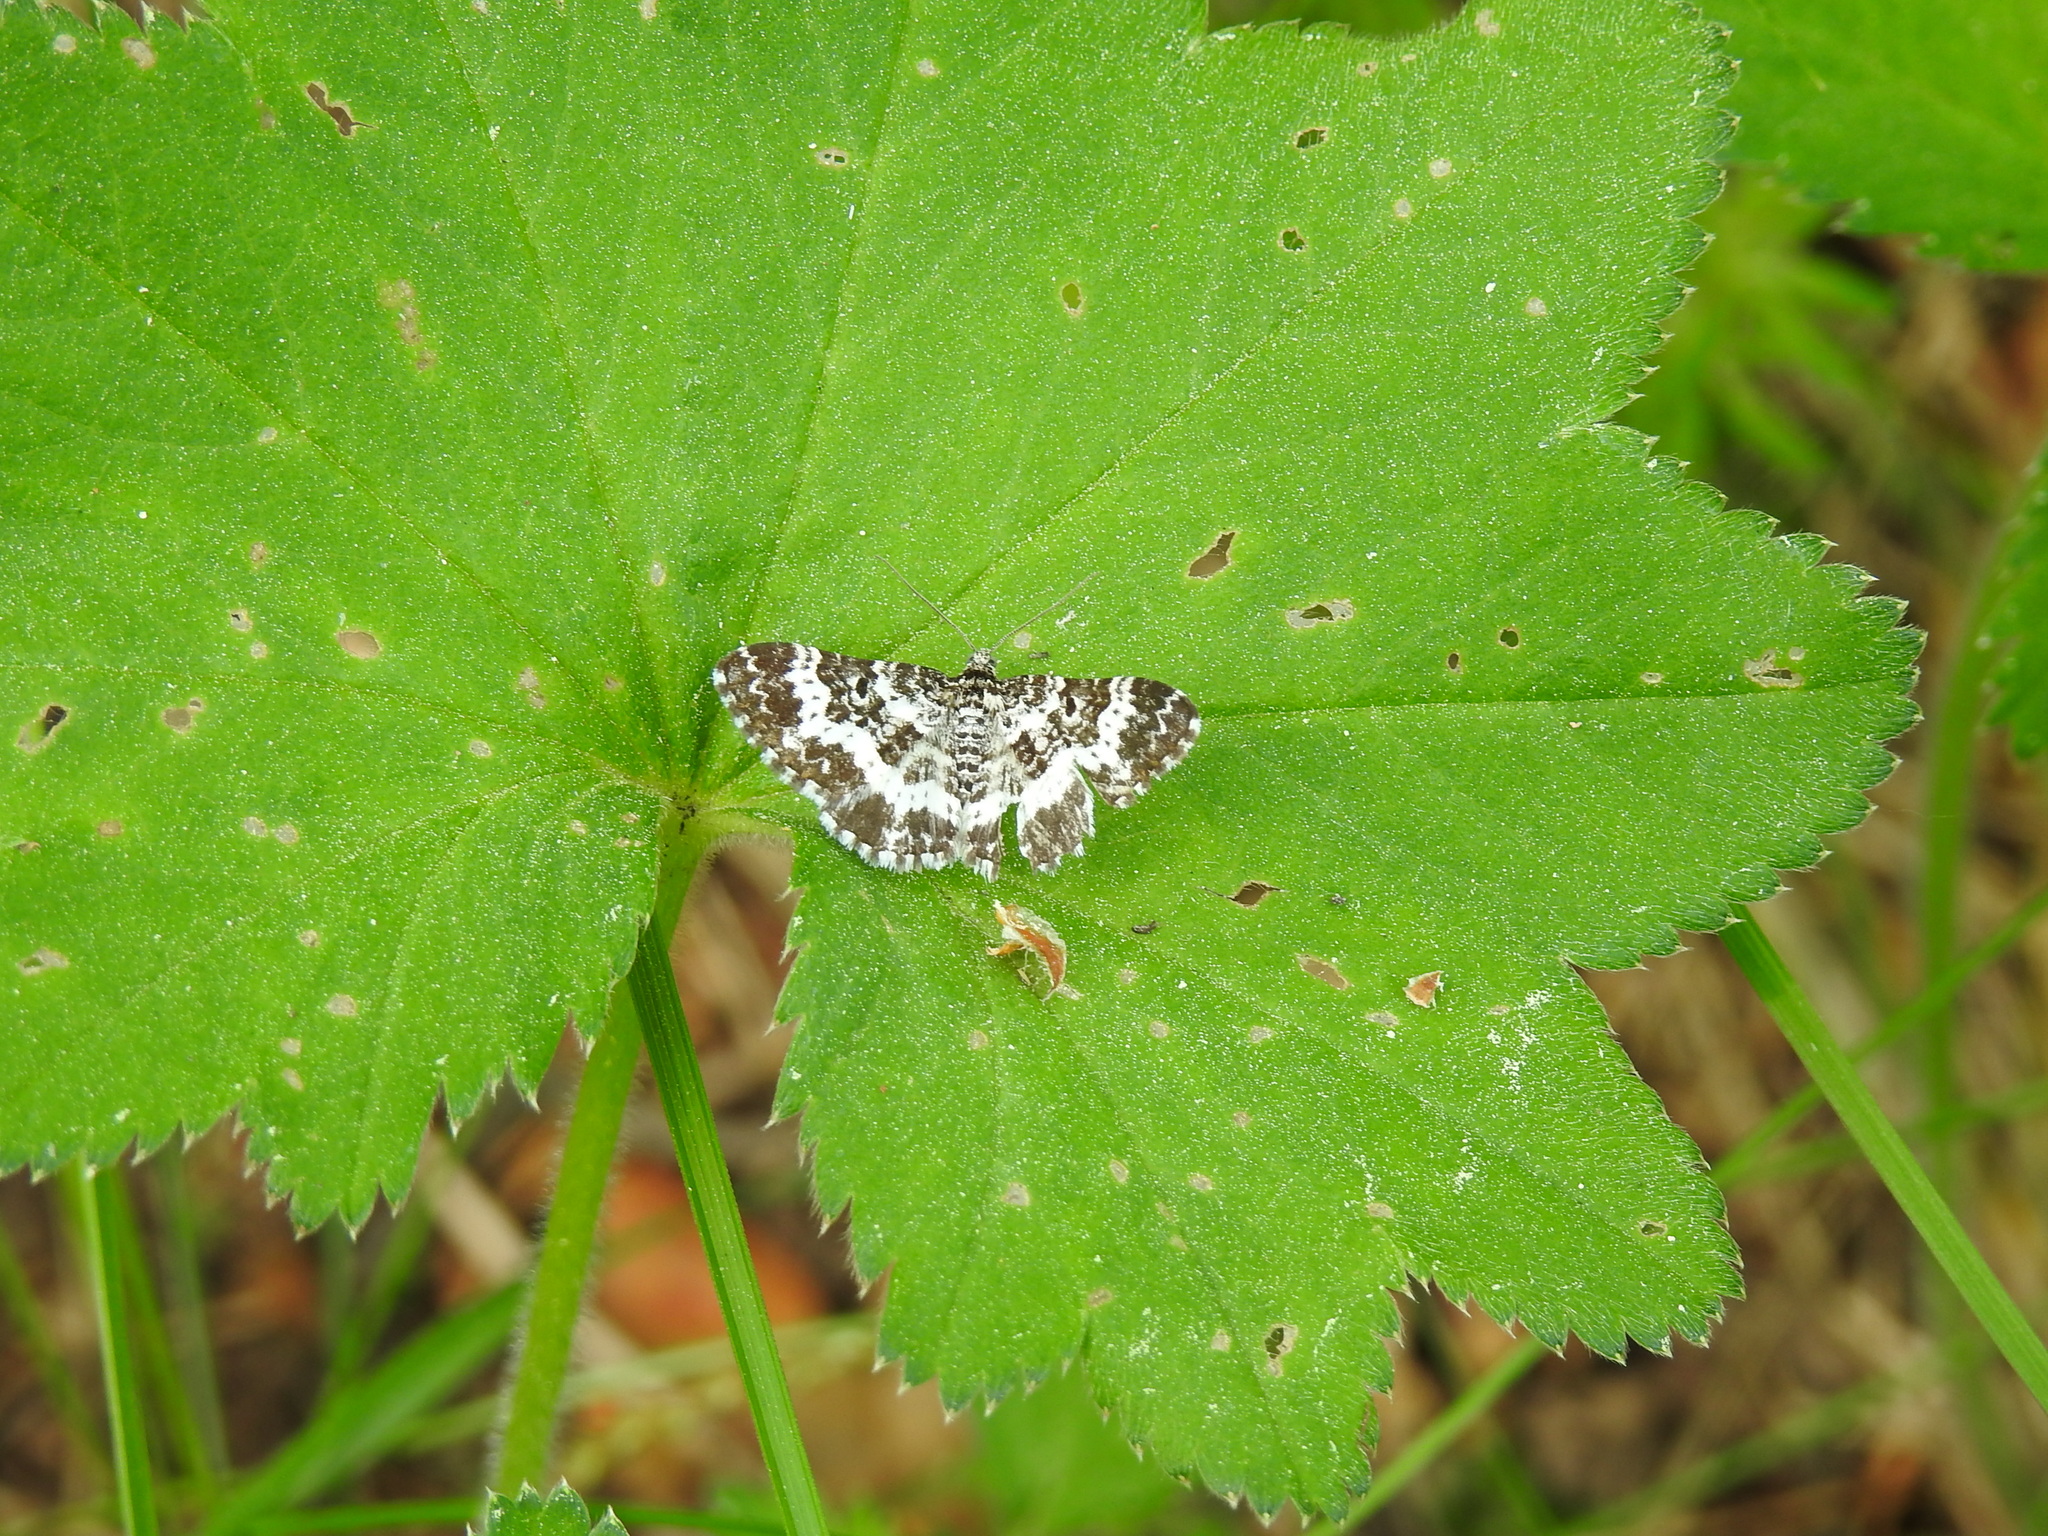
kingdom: Animalia
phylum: Arthropoda
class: Insecta
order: Lepidoptera
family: Geometridae
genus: Epirrhoe
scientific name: Epirrhoe tristata
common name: Small argent & sable
